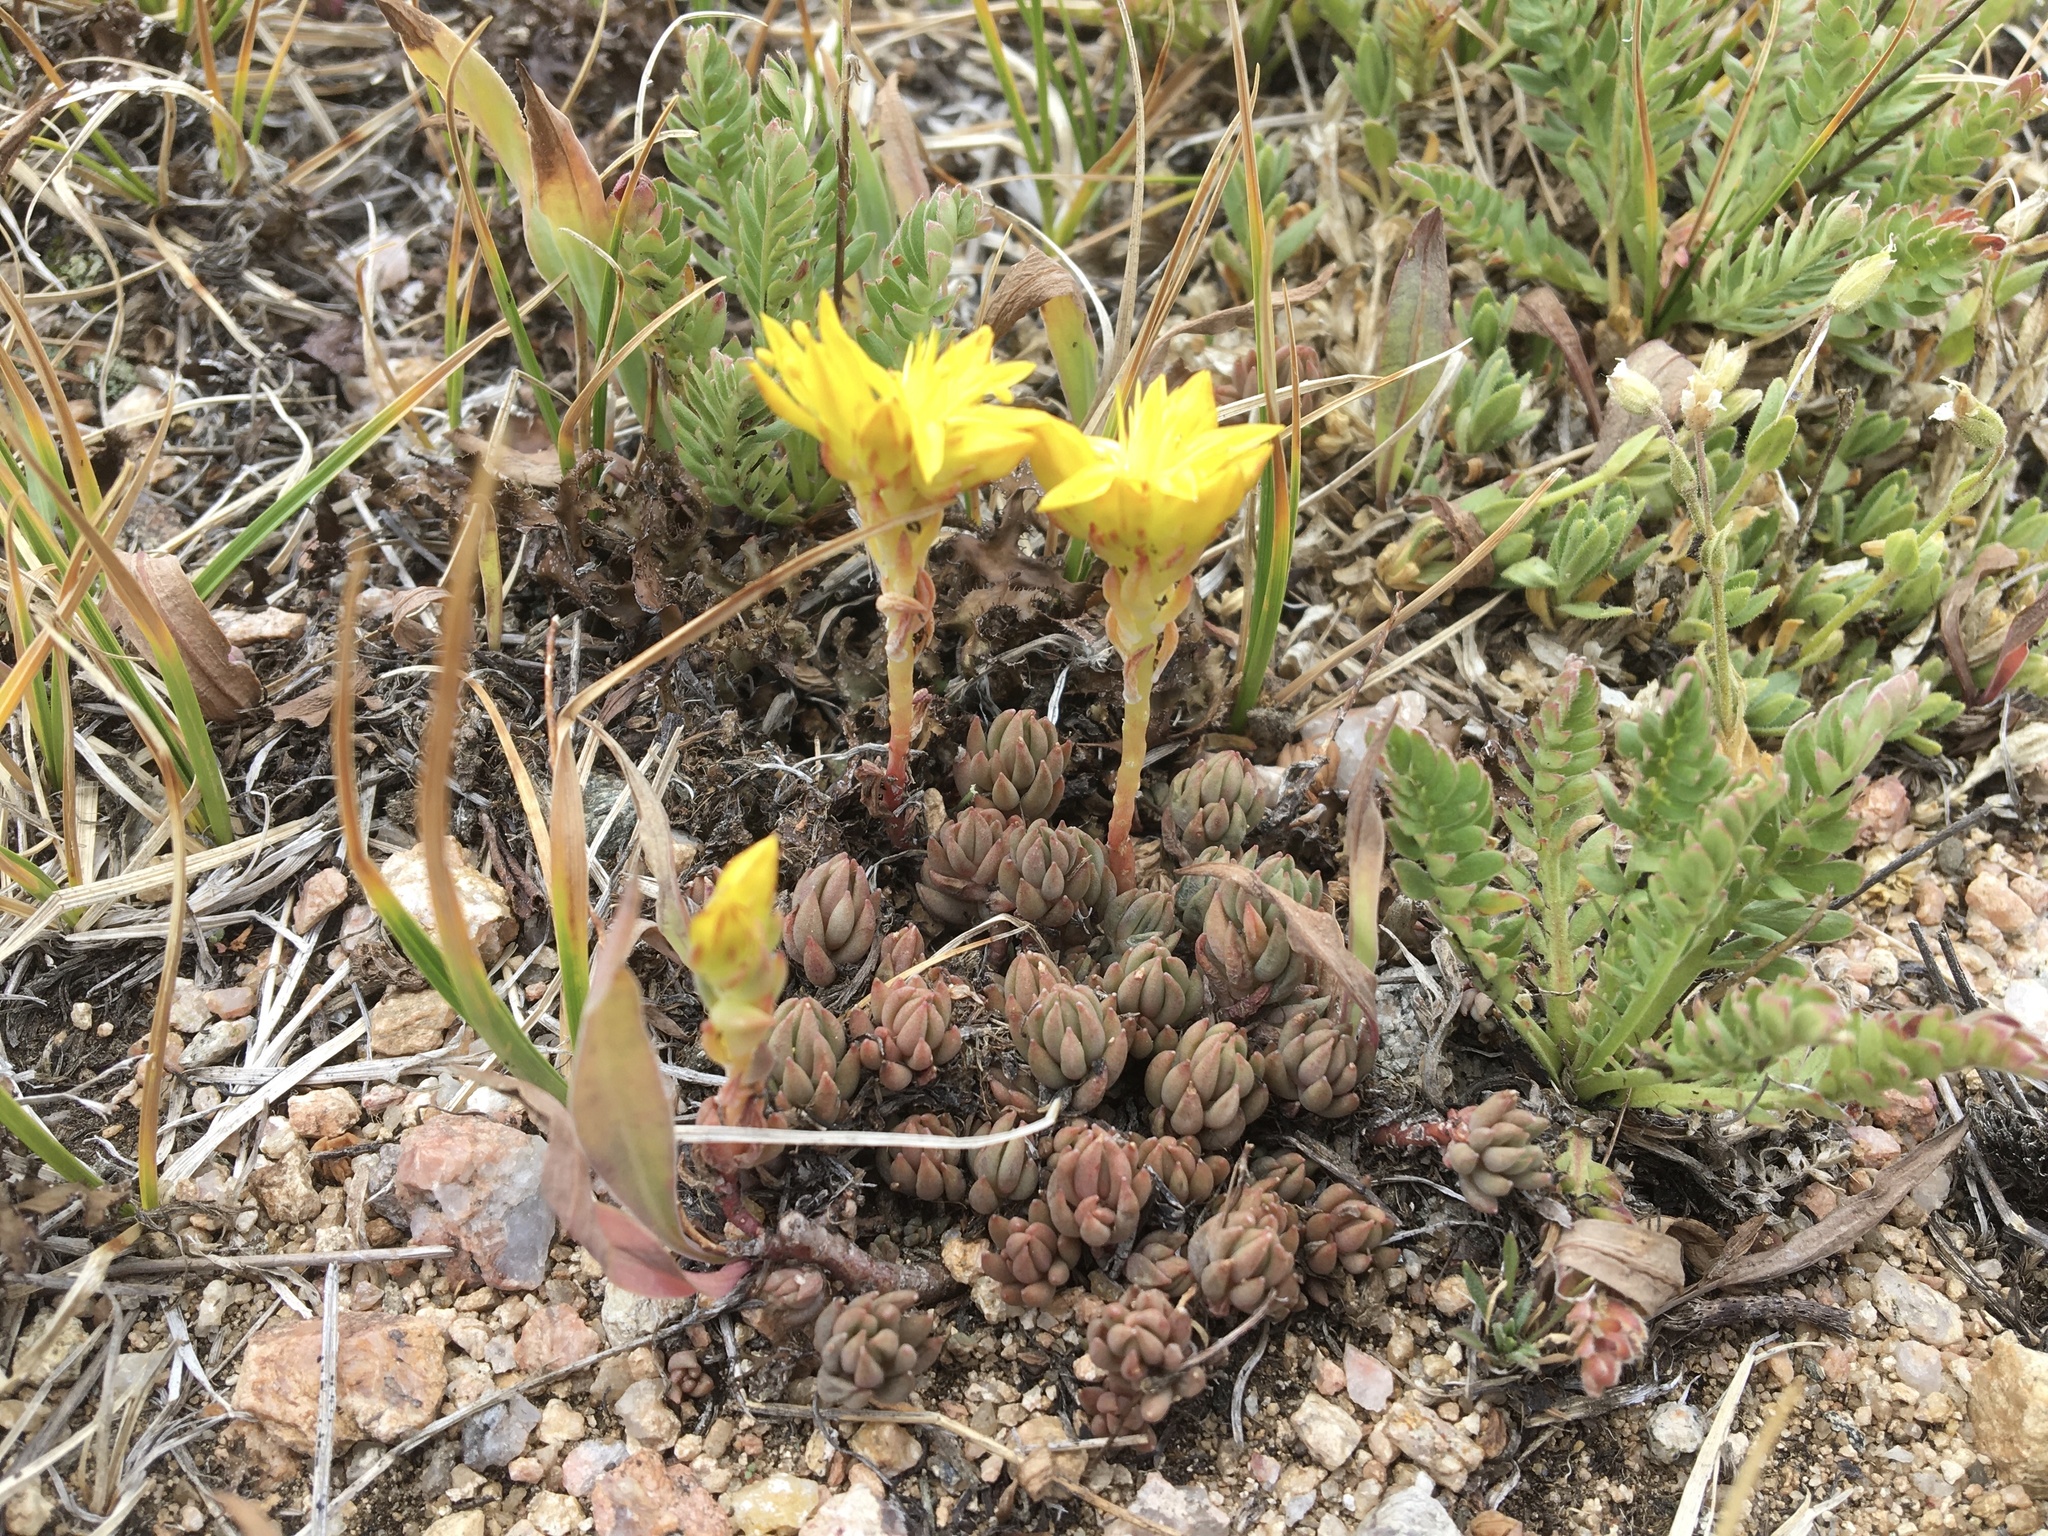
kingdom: Plantae
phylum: Tracheophyta
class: Magnoliopsida
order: Saxifragales
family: Crassulaceae
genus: Sedum
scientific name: Sedum lanceolatum
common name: Common stonecrop
